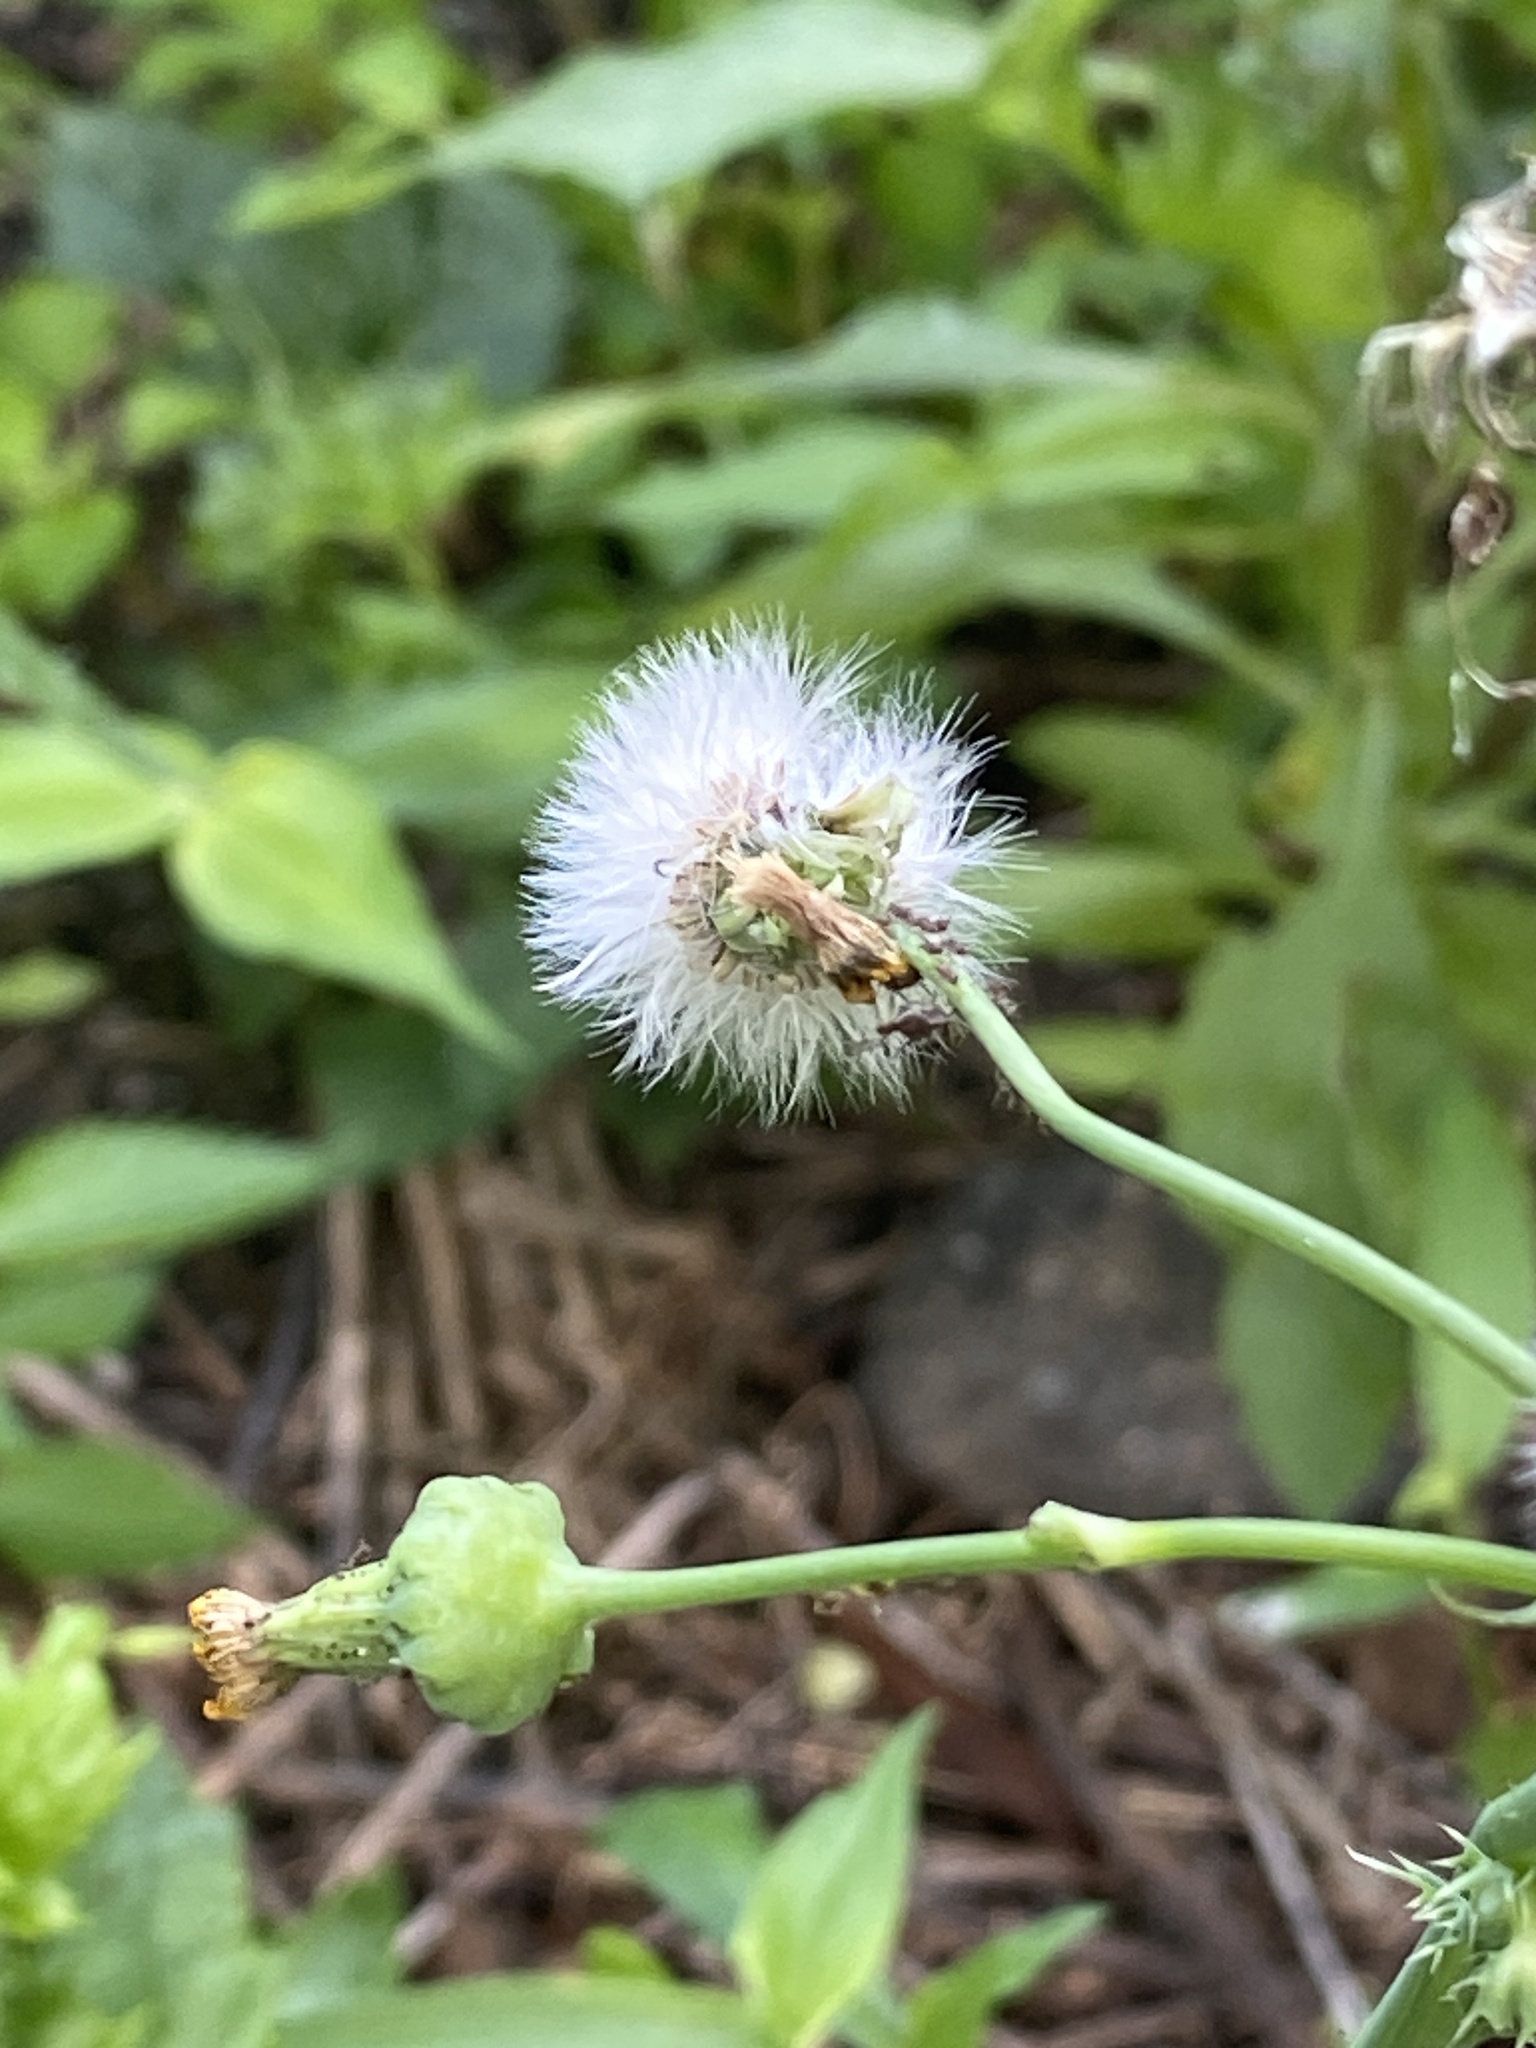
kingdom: Plantae
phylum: Tracheophyta
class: Magnoliopsida
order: Asterales
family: Asteraceae
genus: Sonchus
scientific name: Sonchus asper
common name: Prickly sow-thistle
